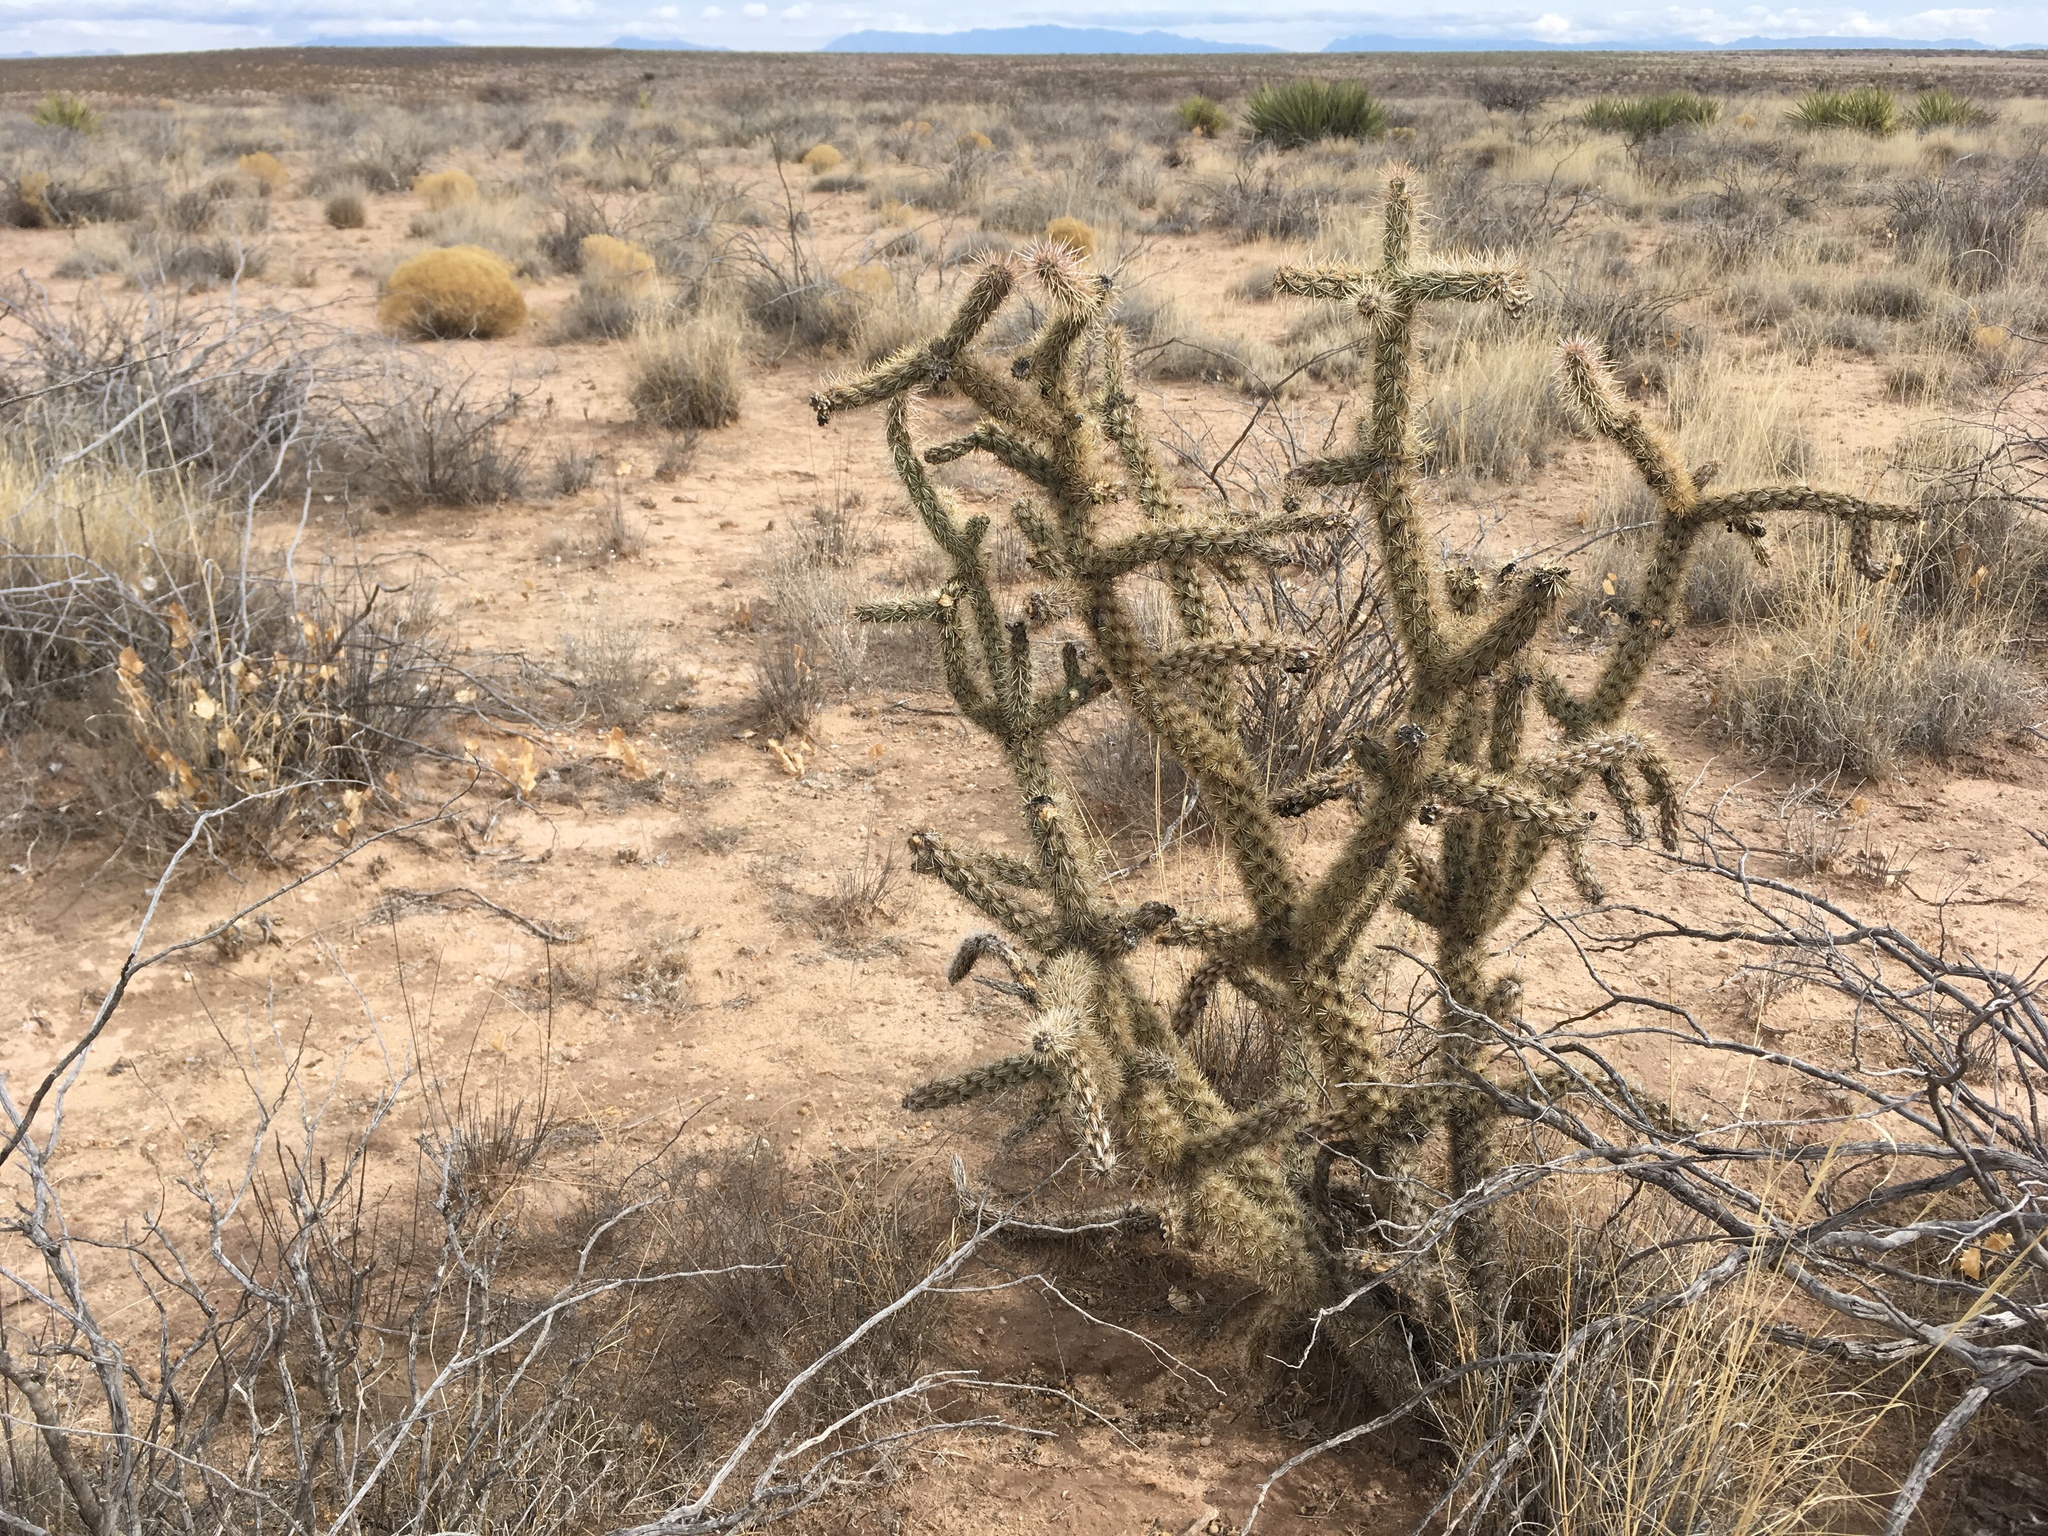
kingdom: Plantae
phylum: Tracheophyta
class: Magnoliopsida
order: Caryophyllales
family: Cactaceae
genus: Cylindropuntia
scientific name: Cylindropuntia imbricata
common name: Candelabrum cactus
